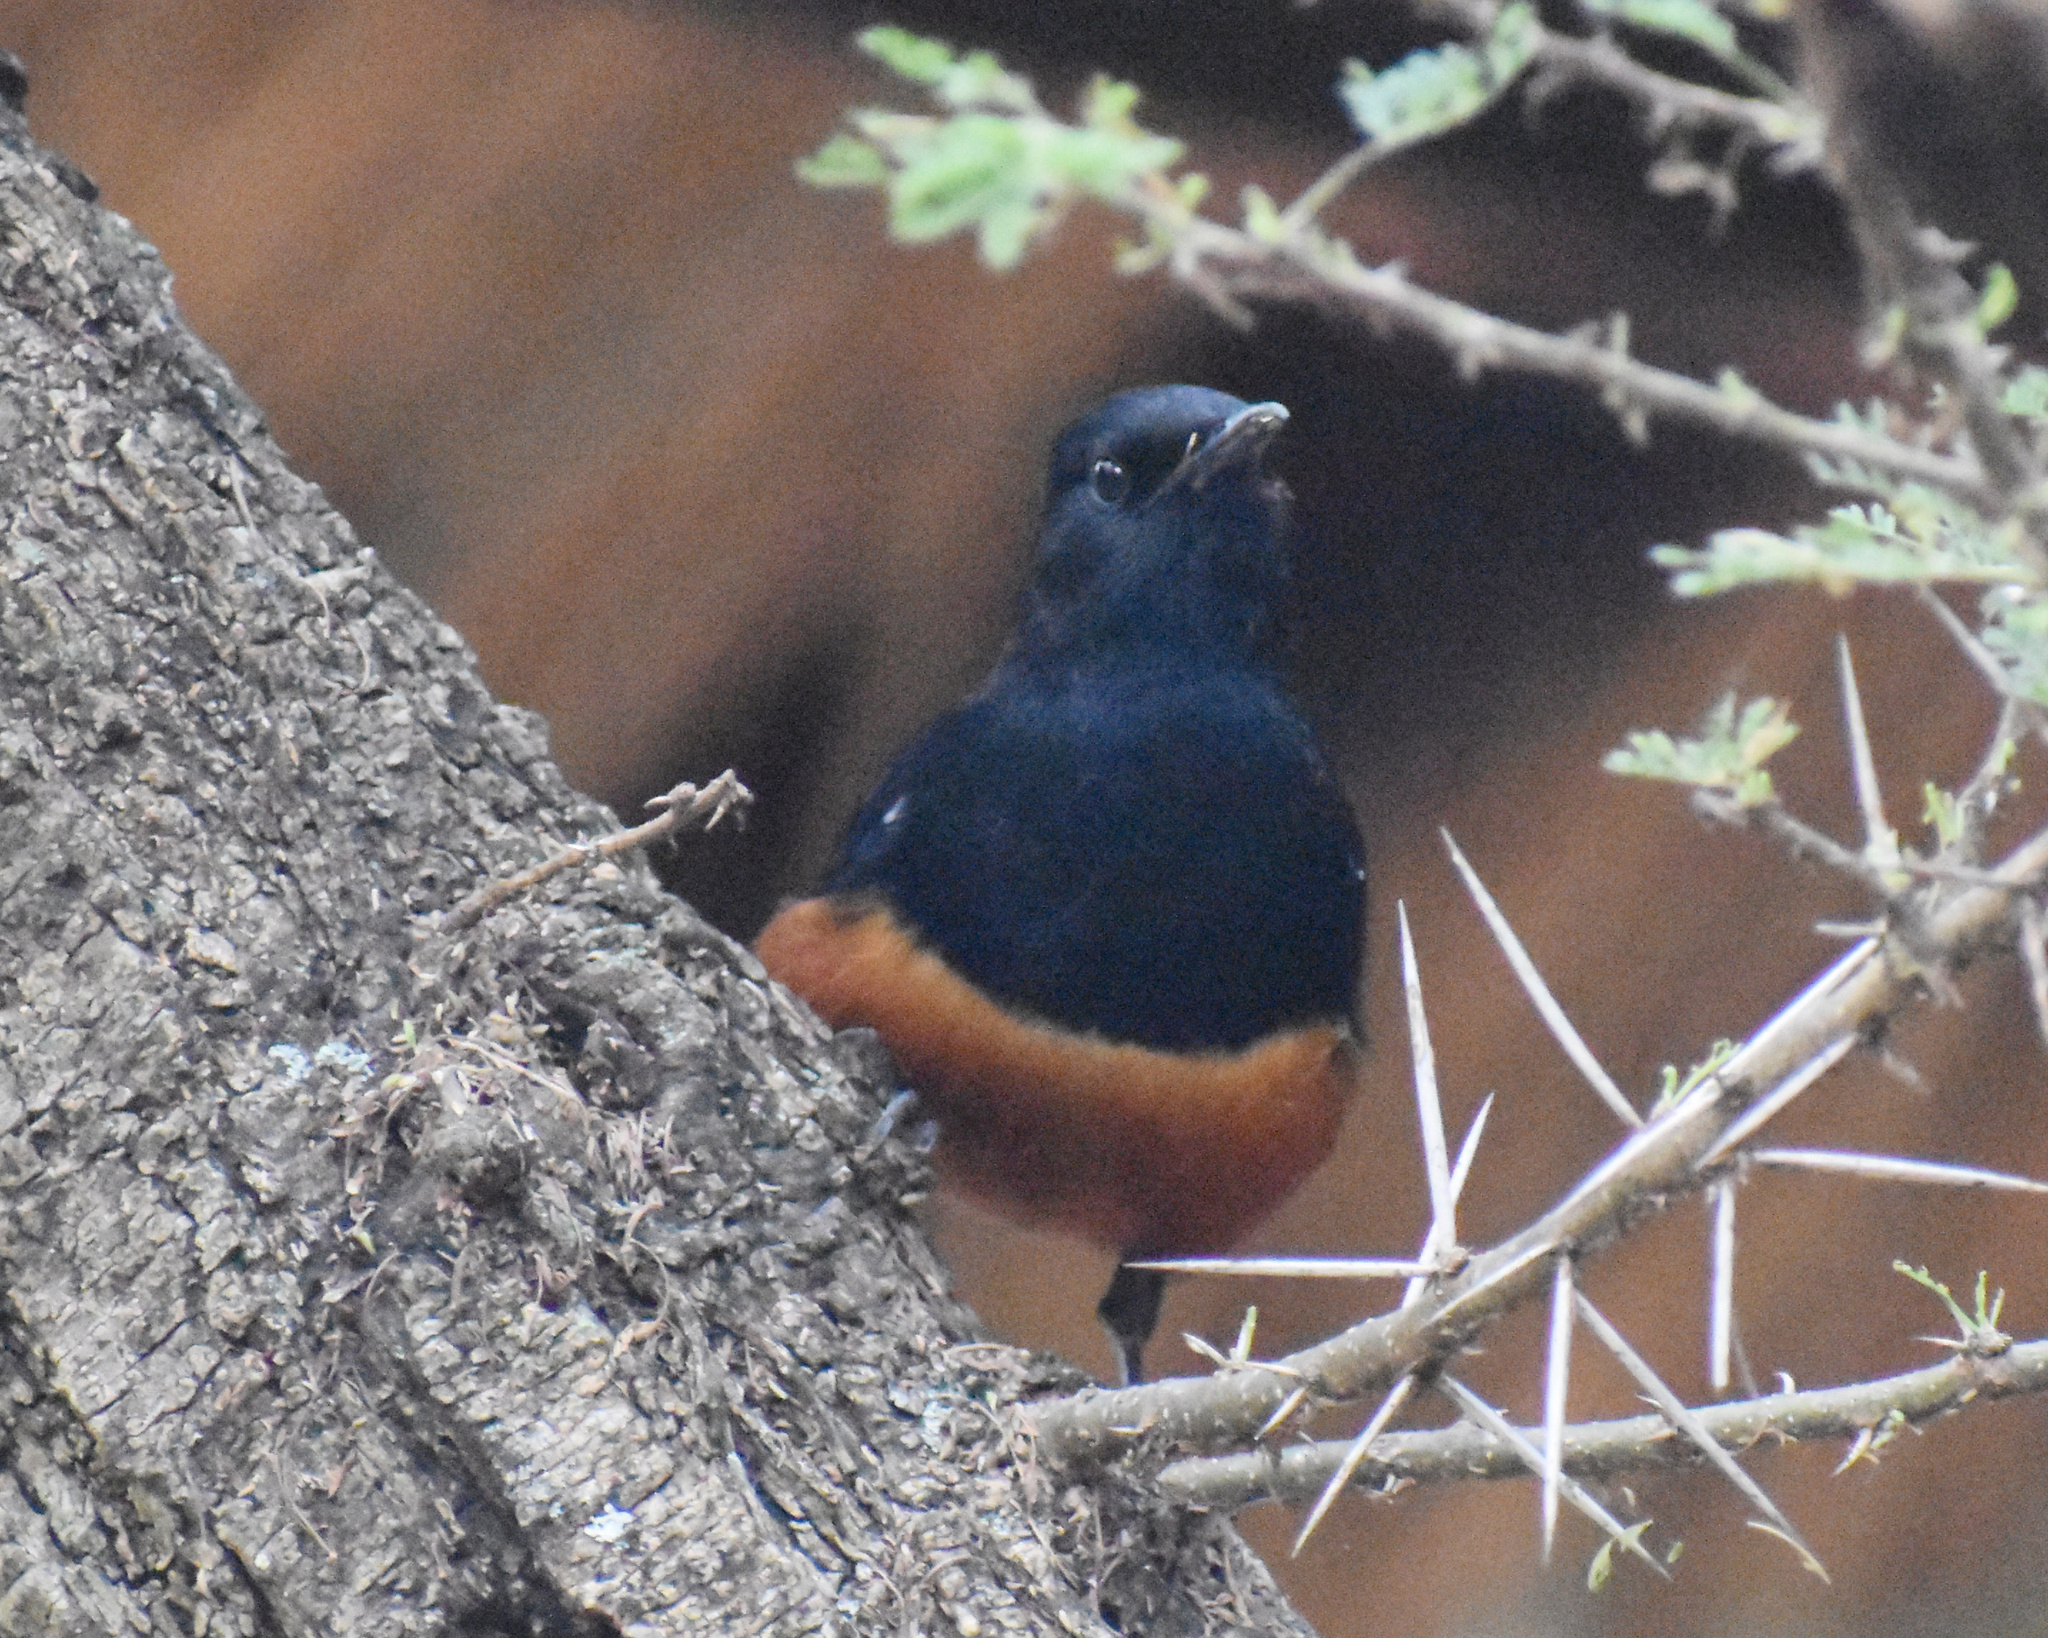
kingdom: Animalia
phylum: Chordata
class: Aves
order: Passeriformes
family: Muscicapidae
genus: Thamnolaea
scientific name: Thamnolaea cinnamomeiventris
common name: Mocking cliff chat
